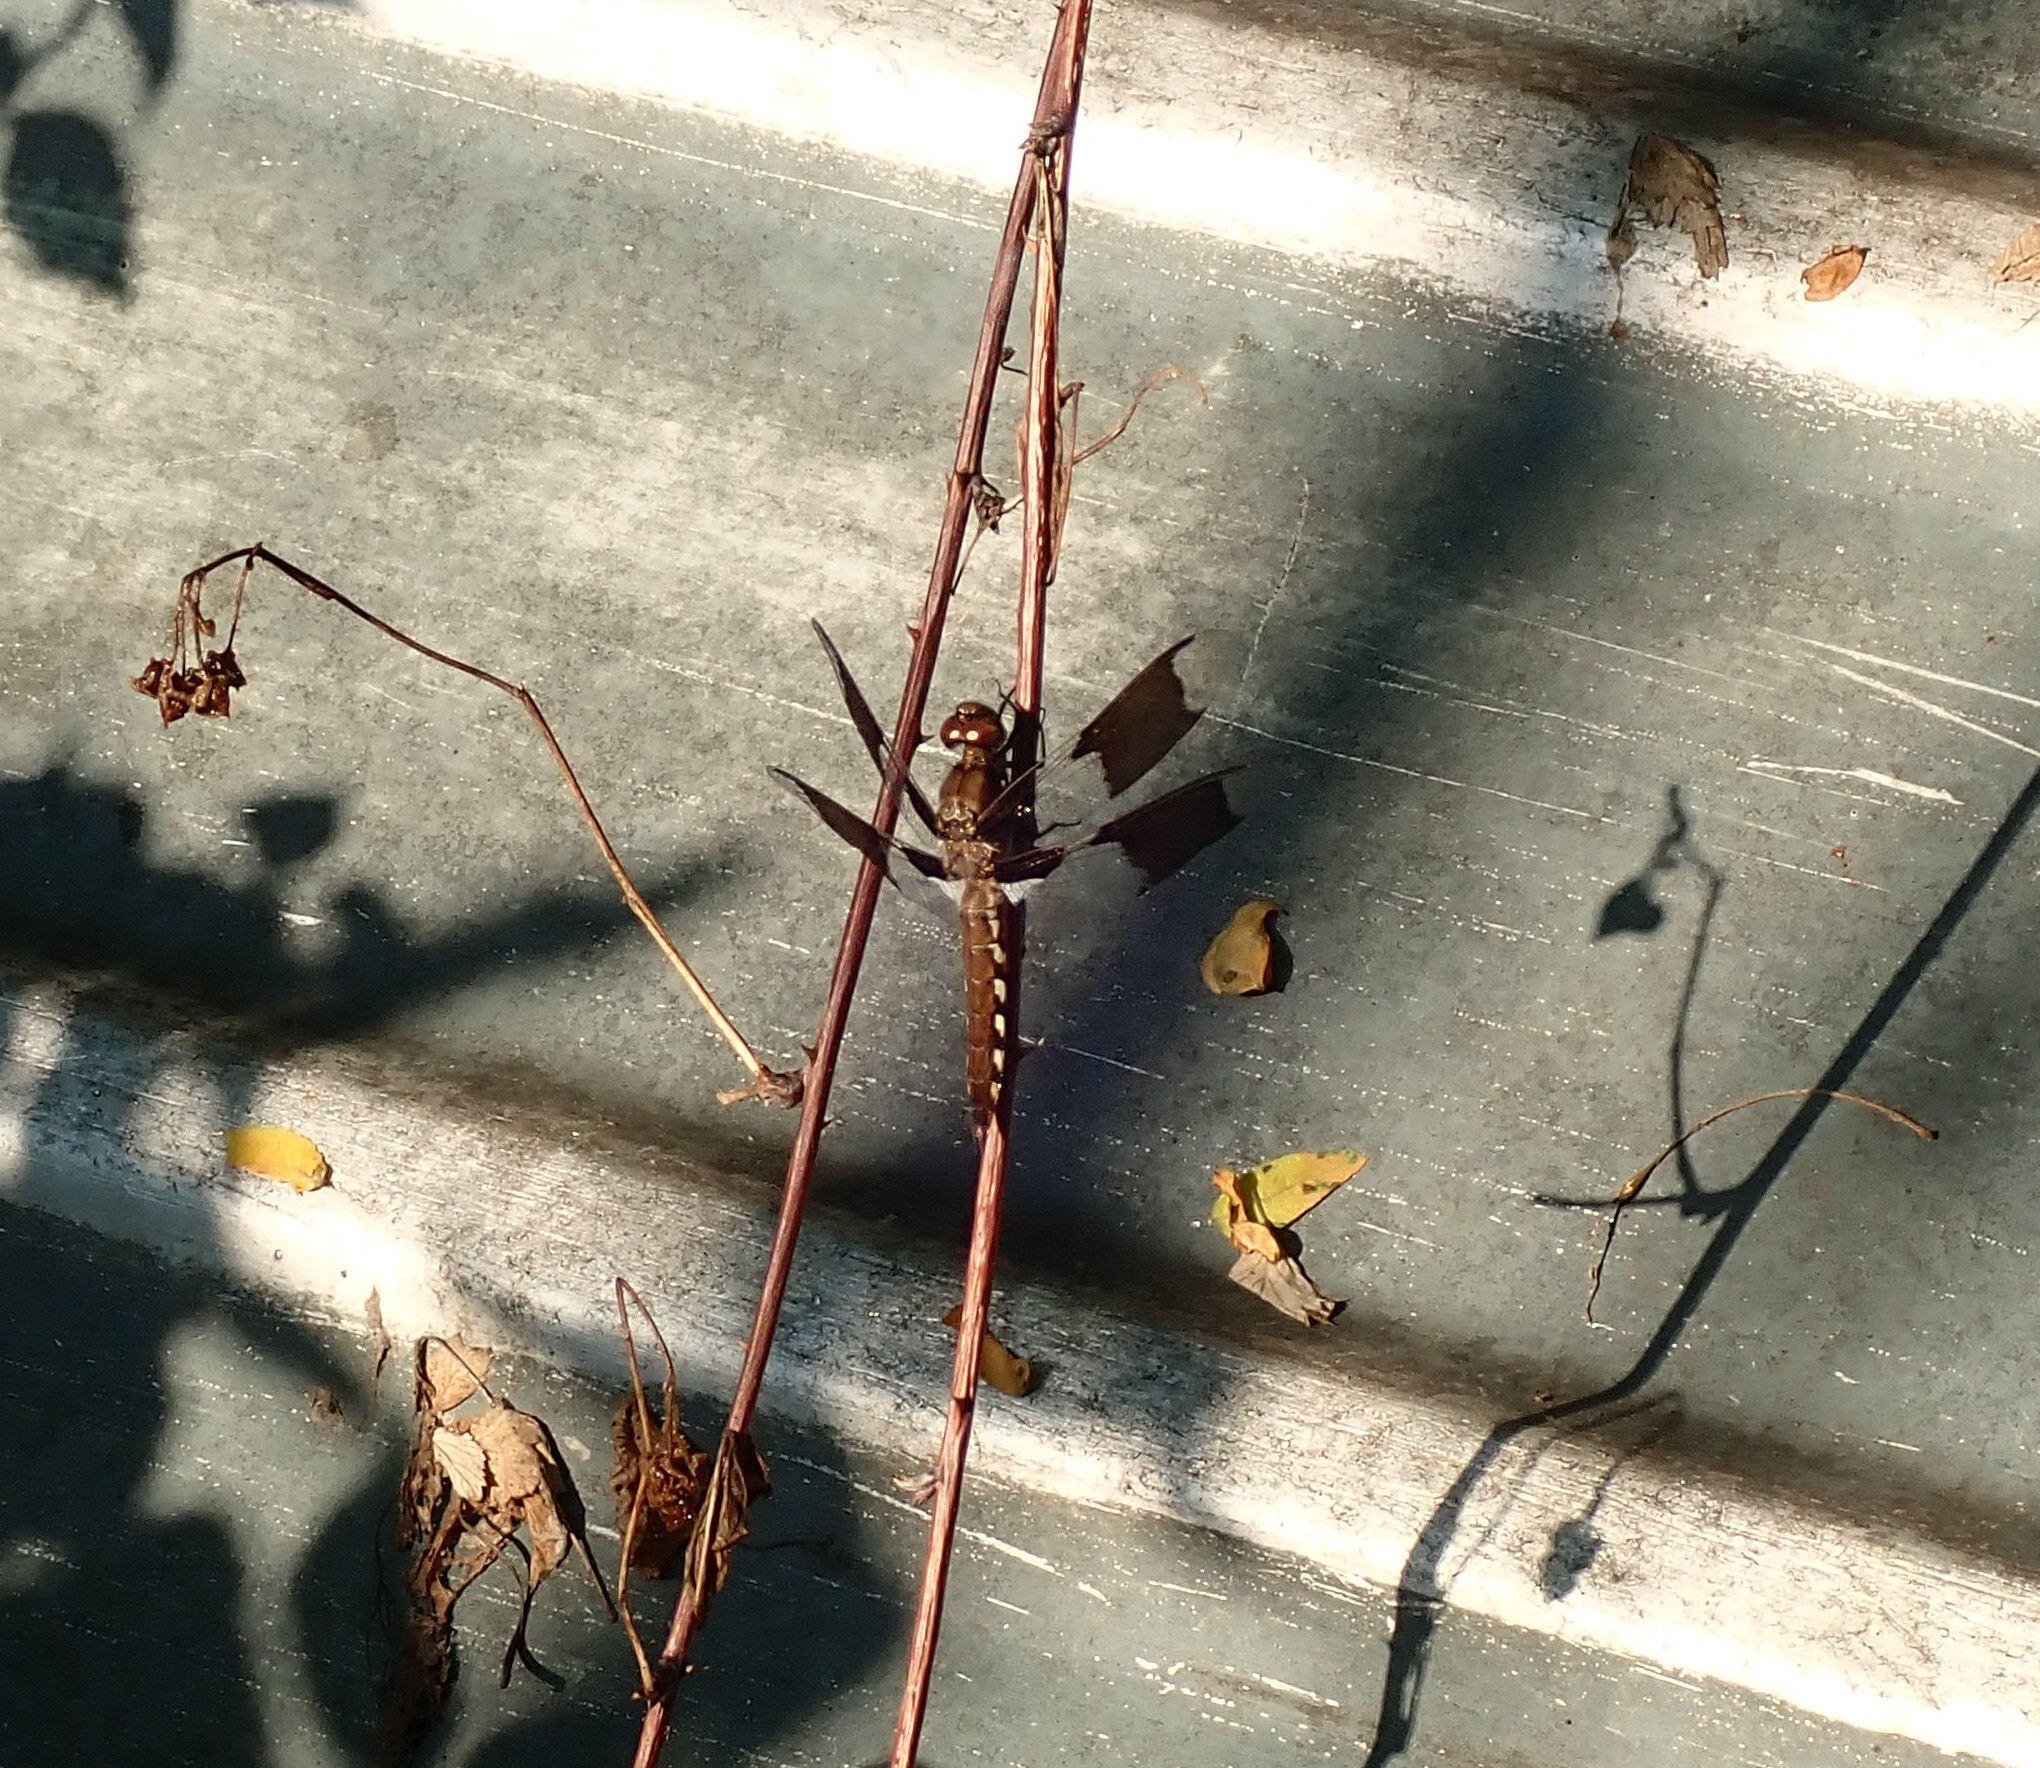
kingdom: Animalia
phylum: Arthropoda
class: Insecta
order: Odonata
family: Libellulidae
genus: Plathemis
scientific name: Plathemis lydia
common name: Common whitetail
